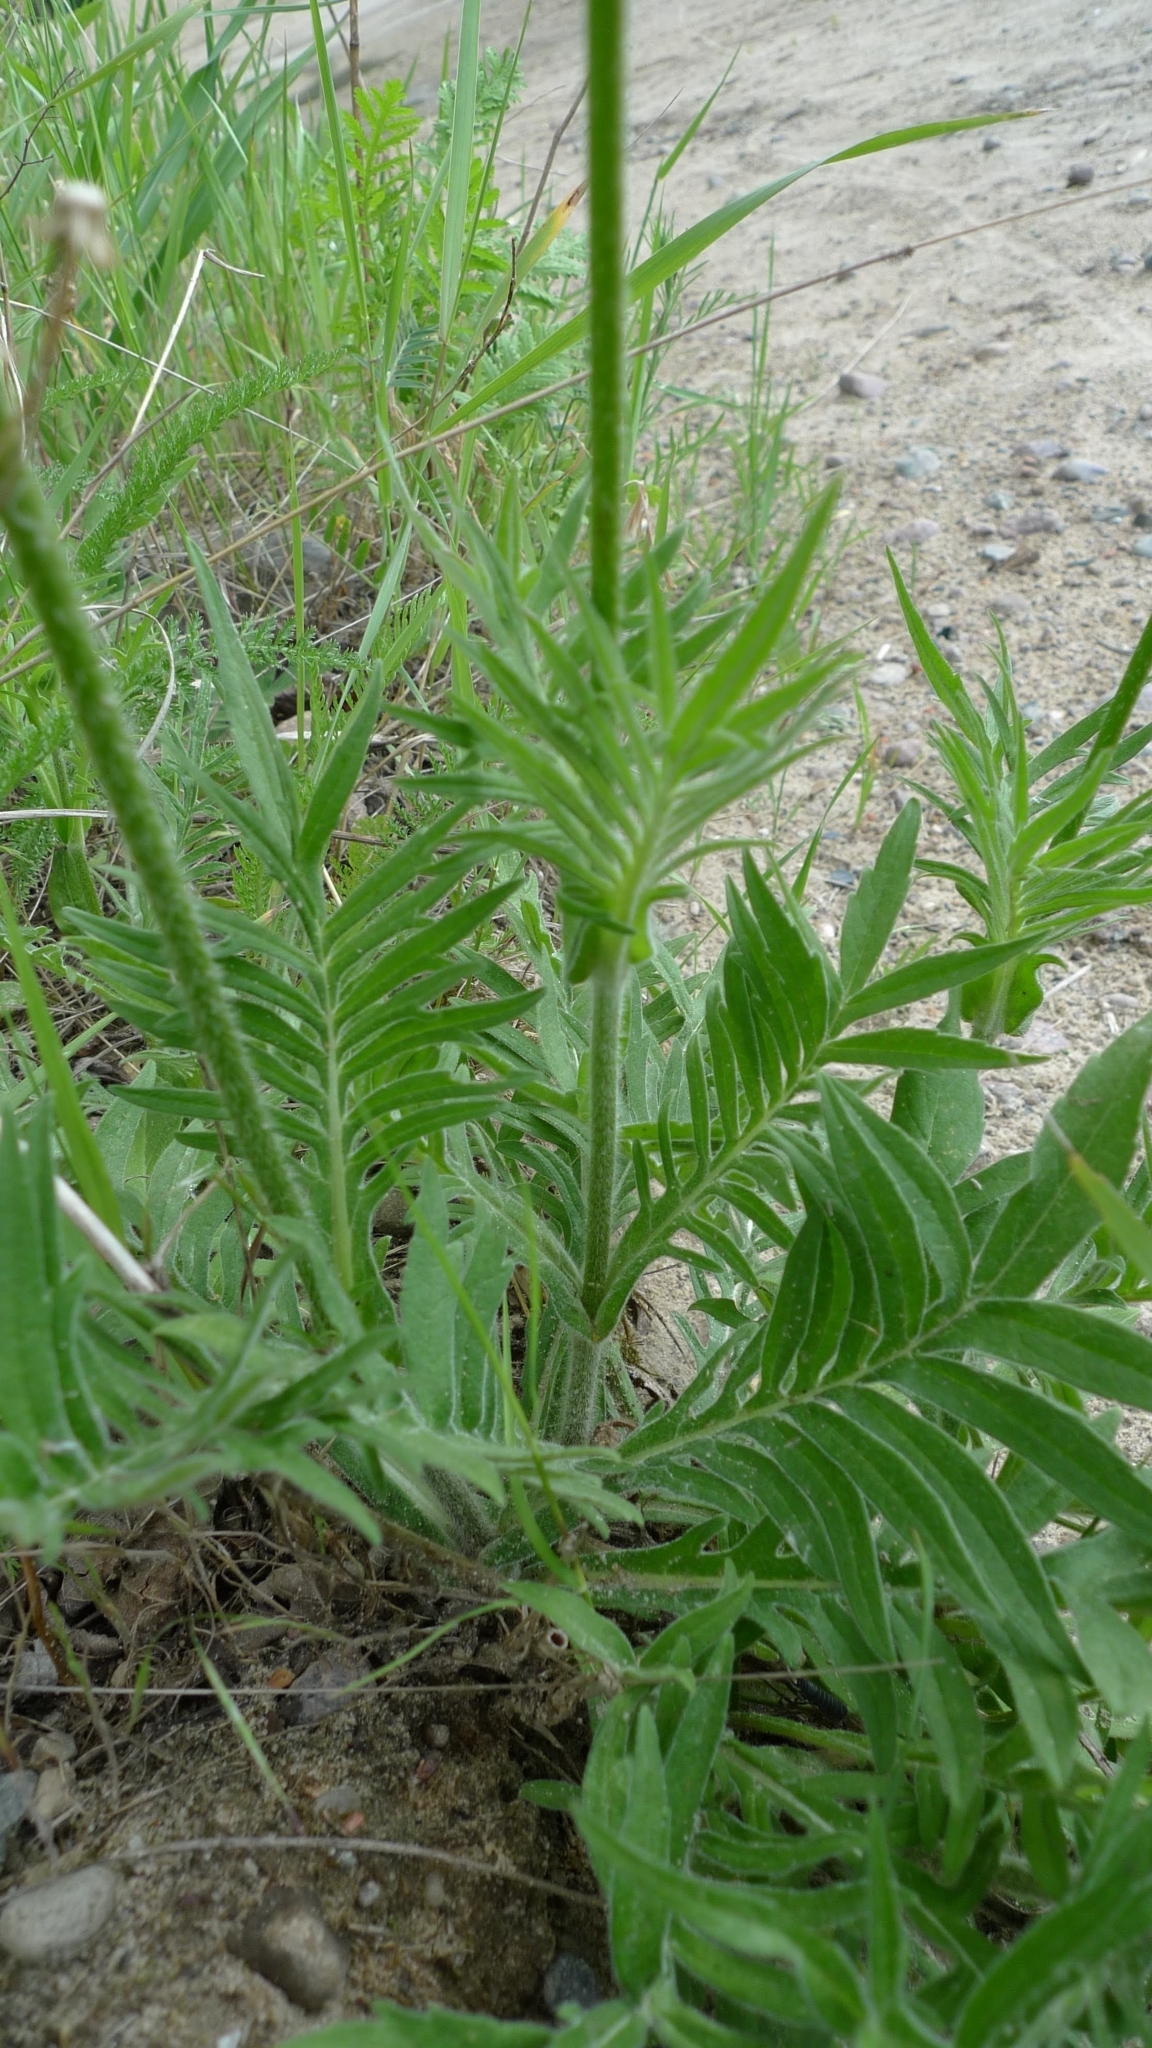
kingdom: Plantae
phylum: Tracheophyta
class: Magnoliopsida
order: Dipsacales
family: Caprifoliaceae
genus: Knautia
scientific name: Knautia arvensis
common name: Field scabiosa
